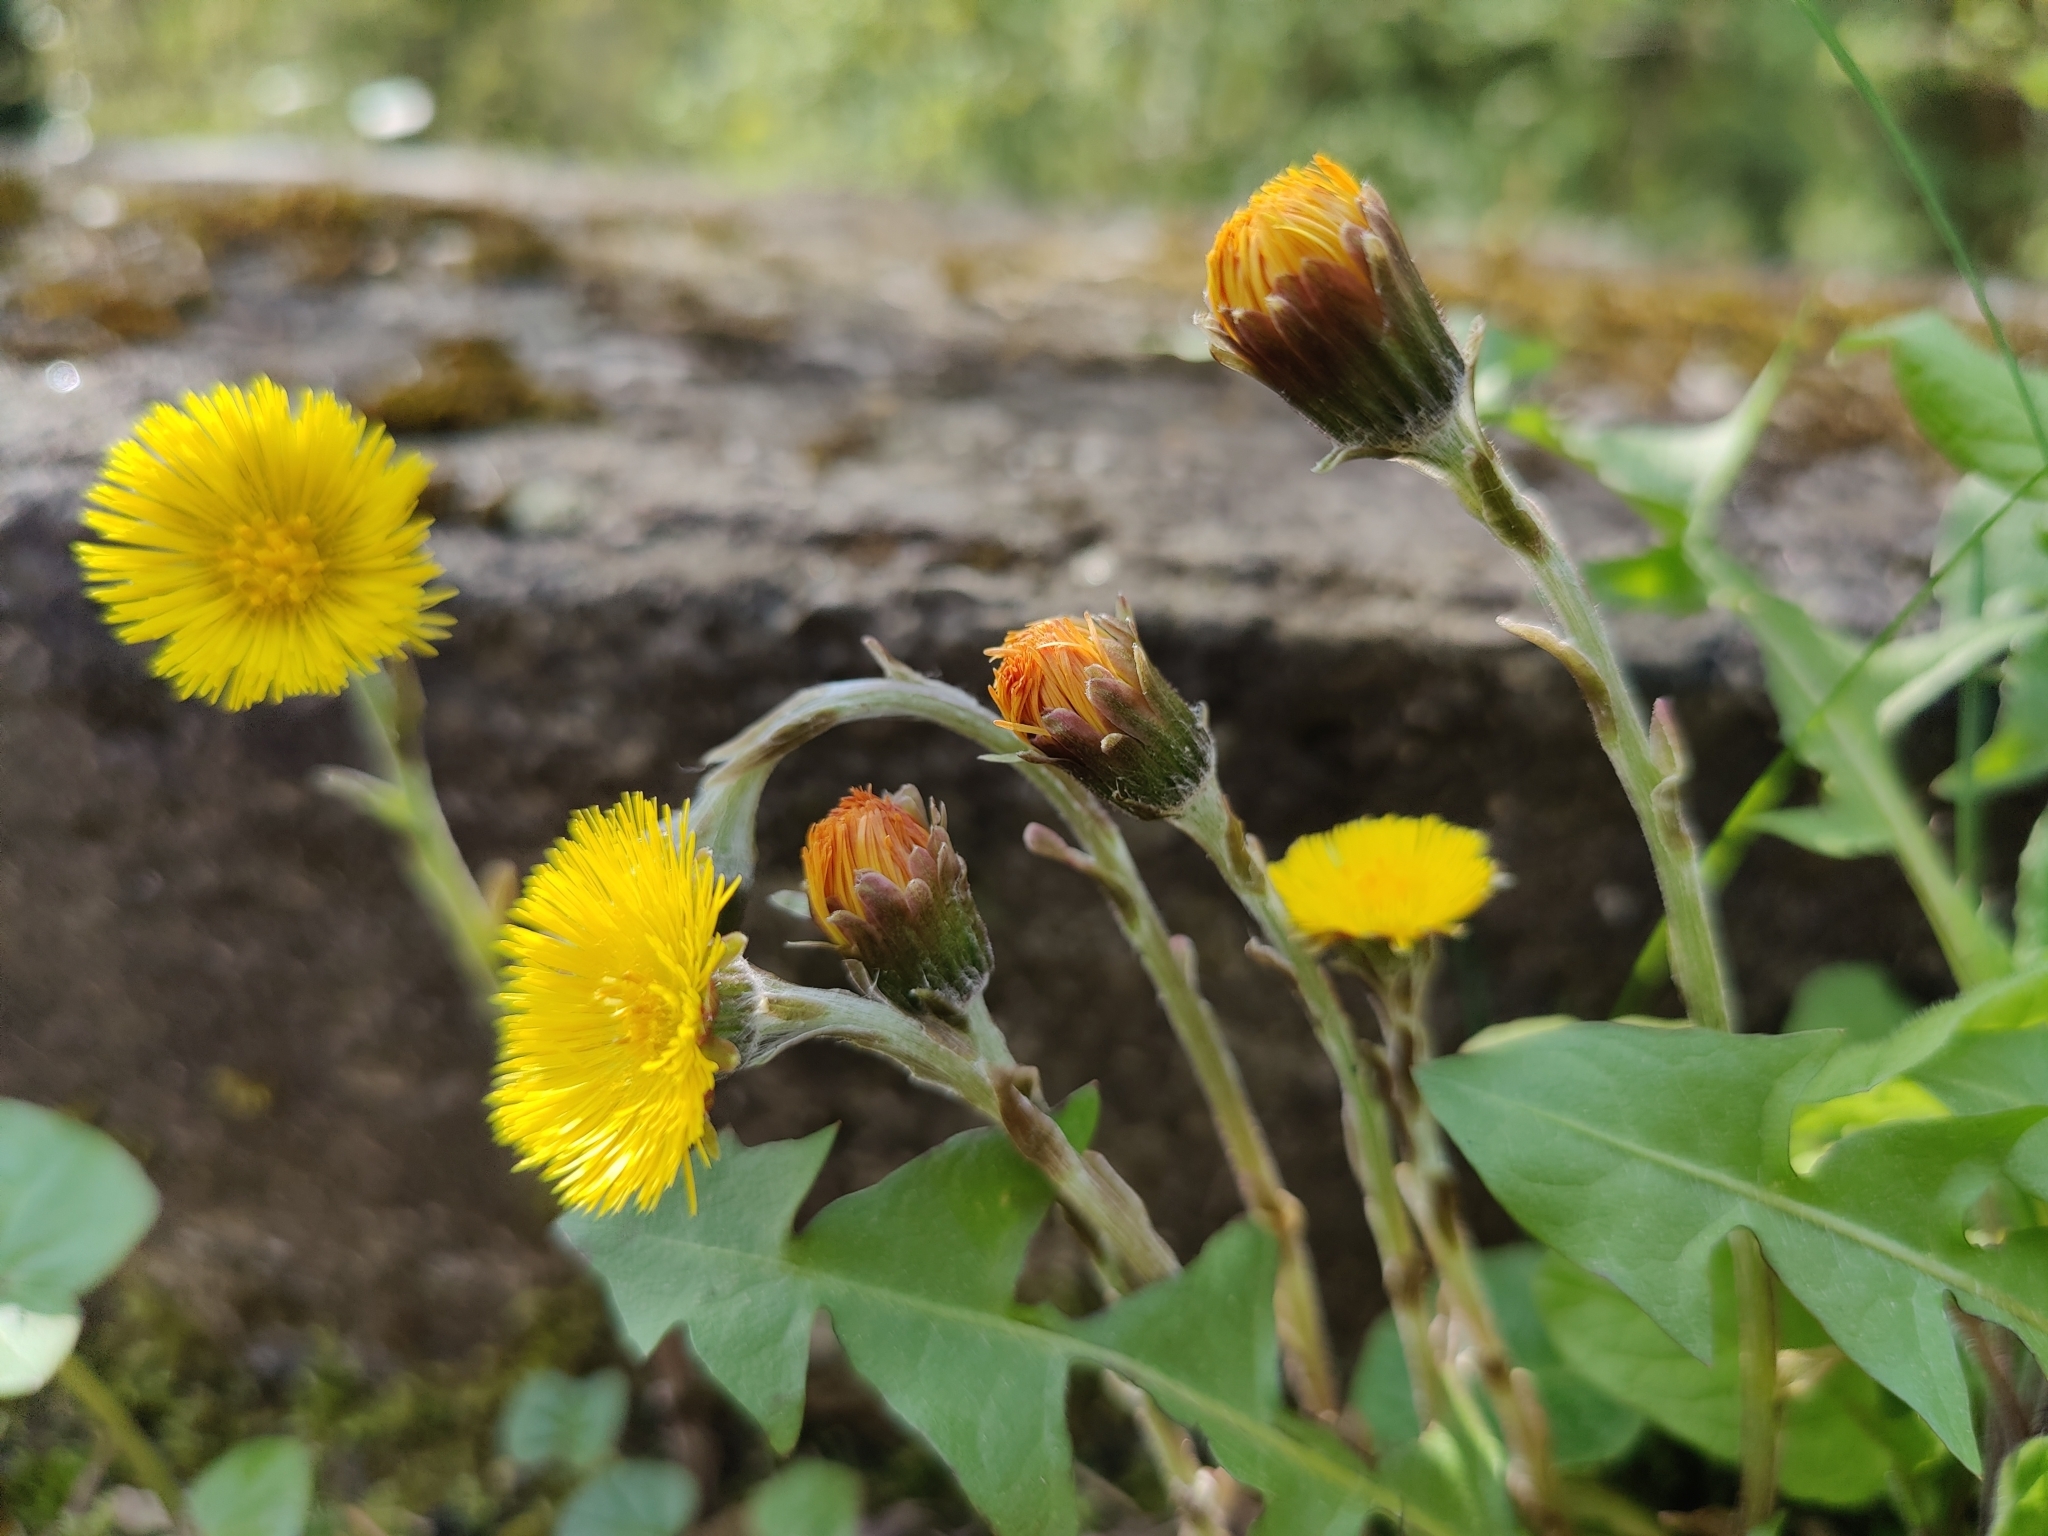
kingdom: Plantae
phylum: Tracheophyta
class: Magnoliopsida
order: Asterales
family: Asteraceae
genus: Tussilago
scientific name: Tussilago farfara
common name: Coltsfoot
